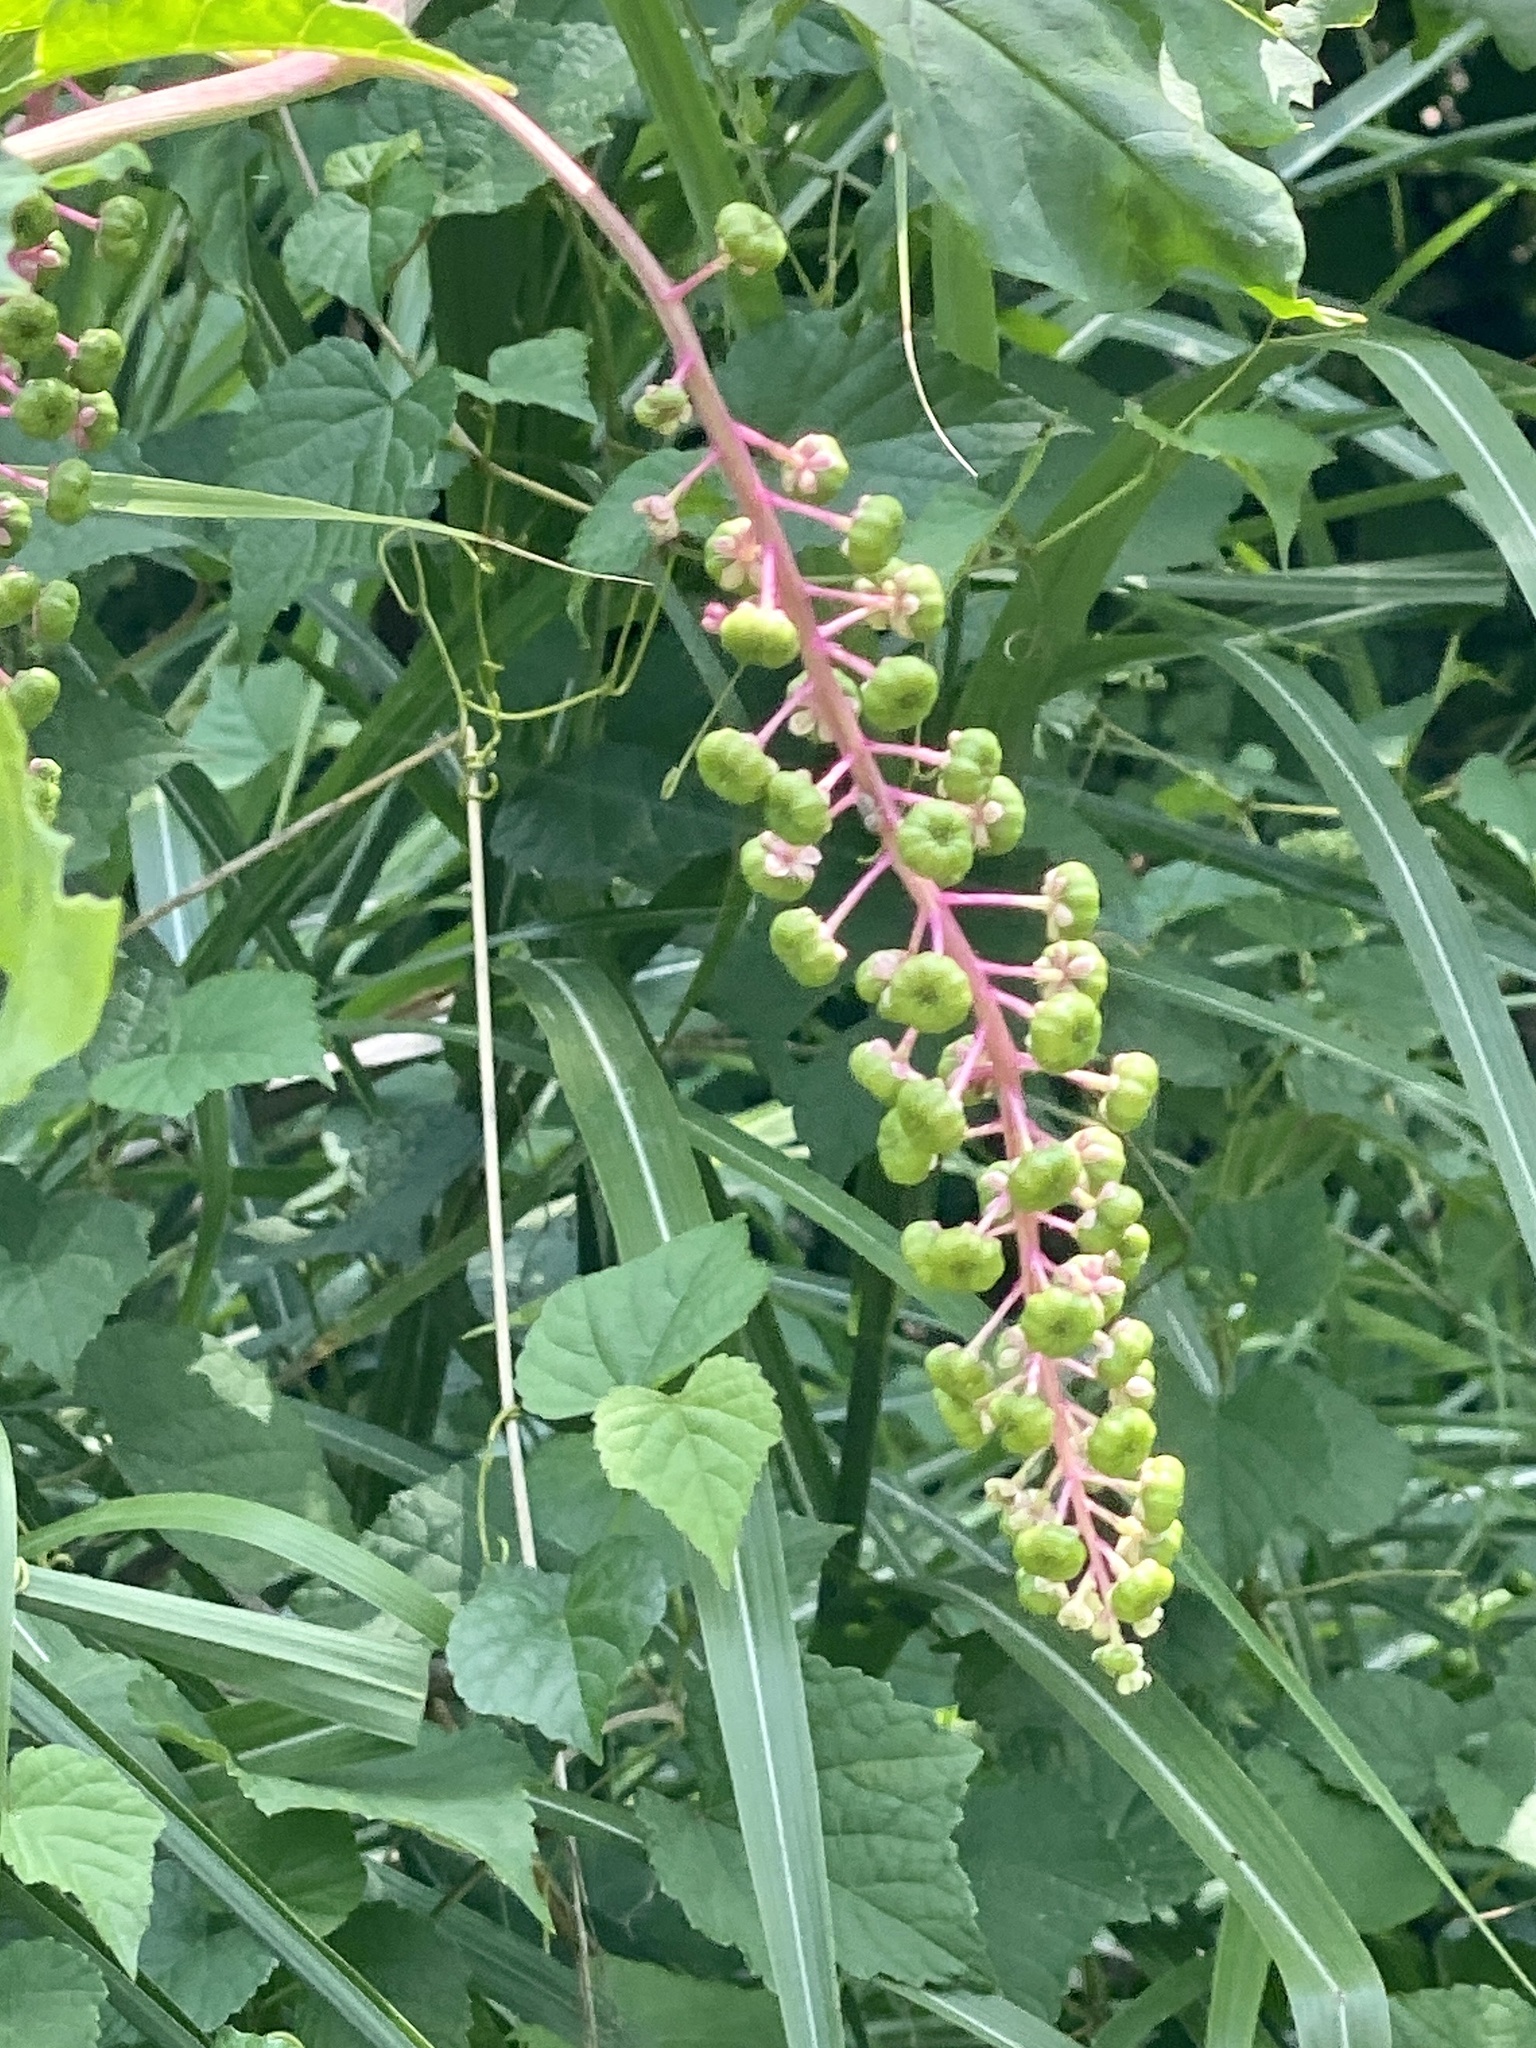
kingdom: Plantae
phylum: Tracheophyta
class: Magnoliopsida
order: Caryophyllales
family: Phytolaccaceae
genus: Phytolacca
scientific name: Phytolacca americana
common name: American pokeweed
